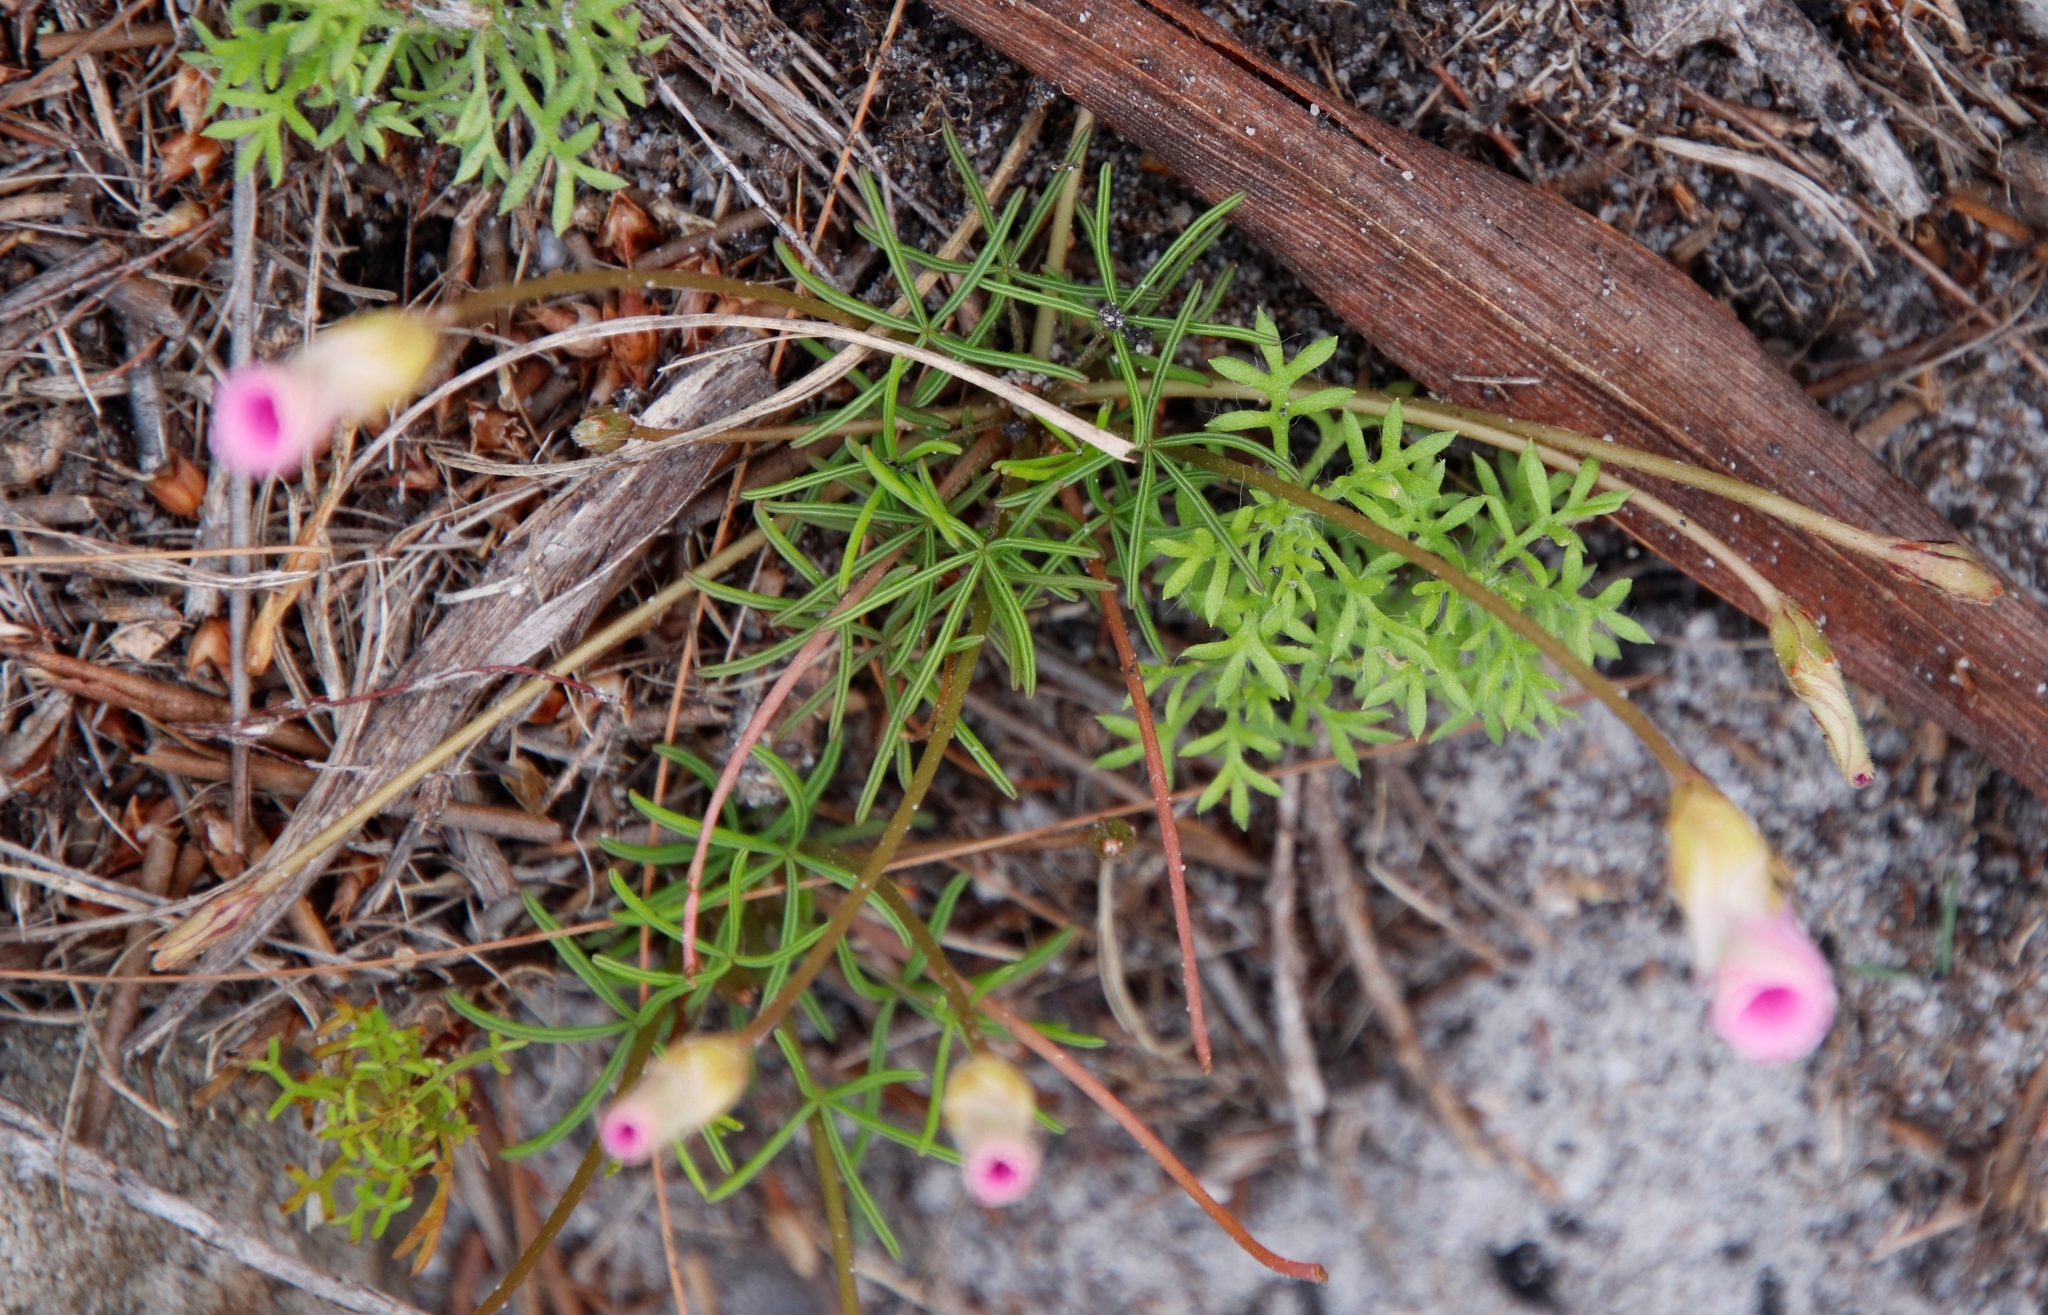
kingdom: Plantae
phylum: Tracheophyta
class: Magnoliopsida
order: Oxalidales
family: Oxalidaceae
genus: Oxalis
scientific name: Oxalis polyphylla
